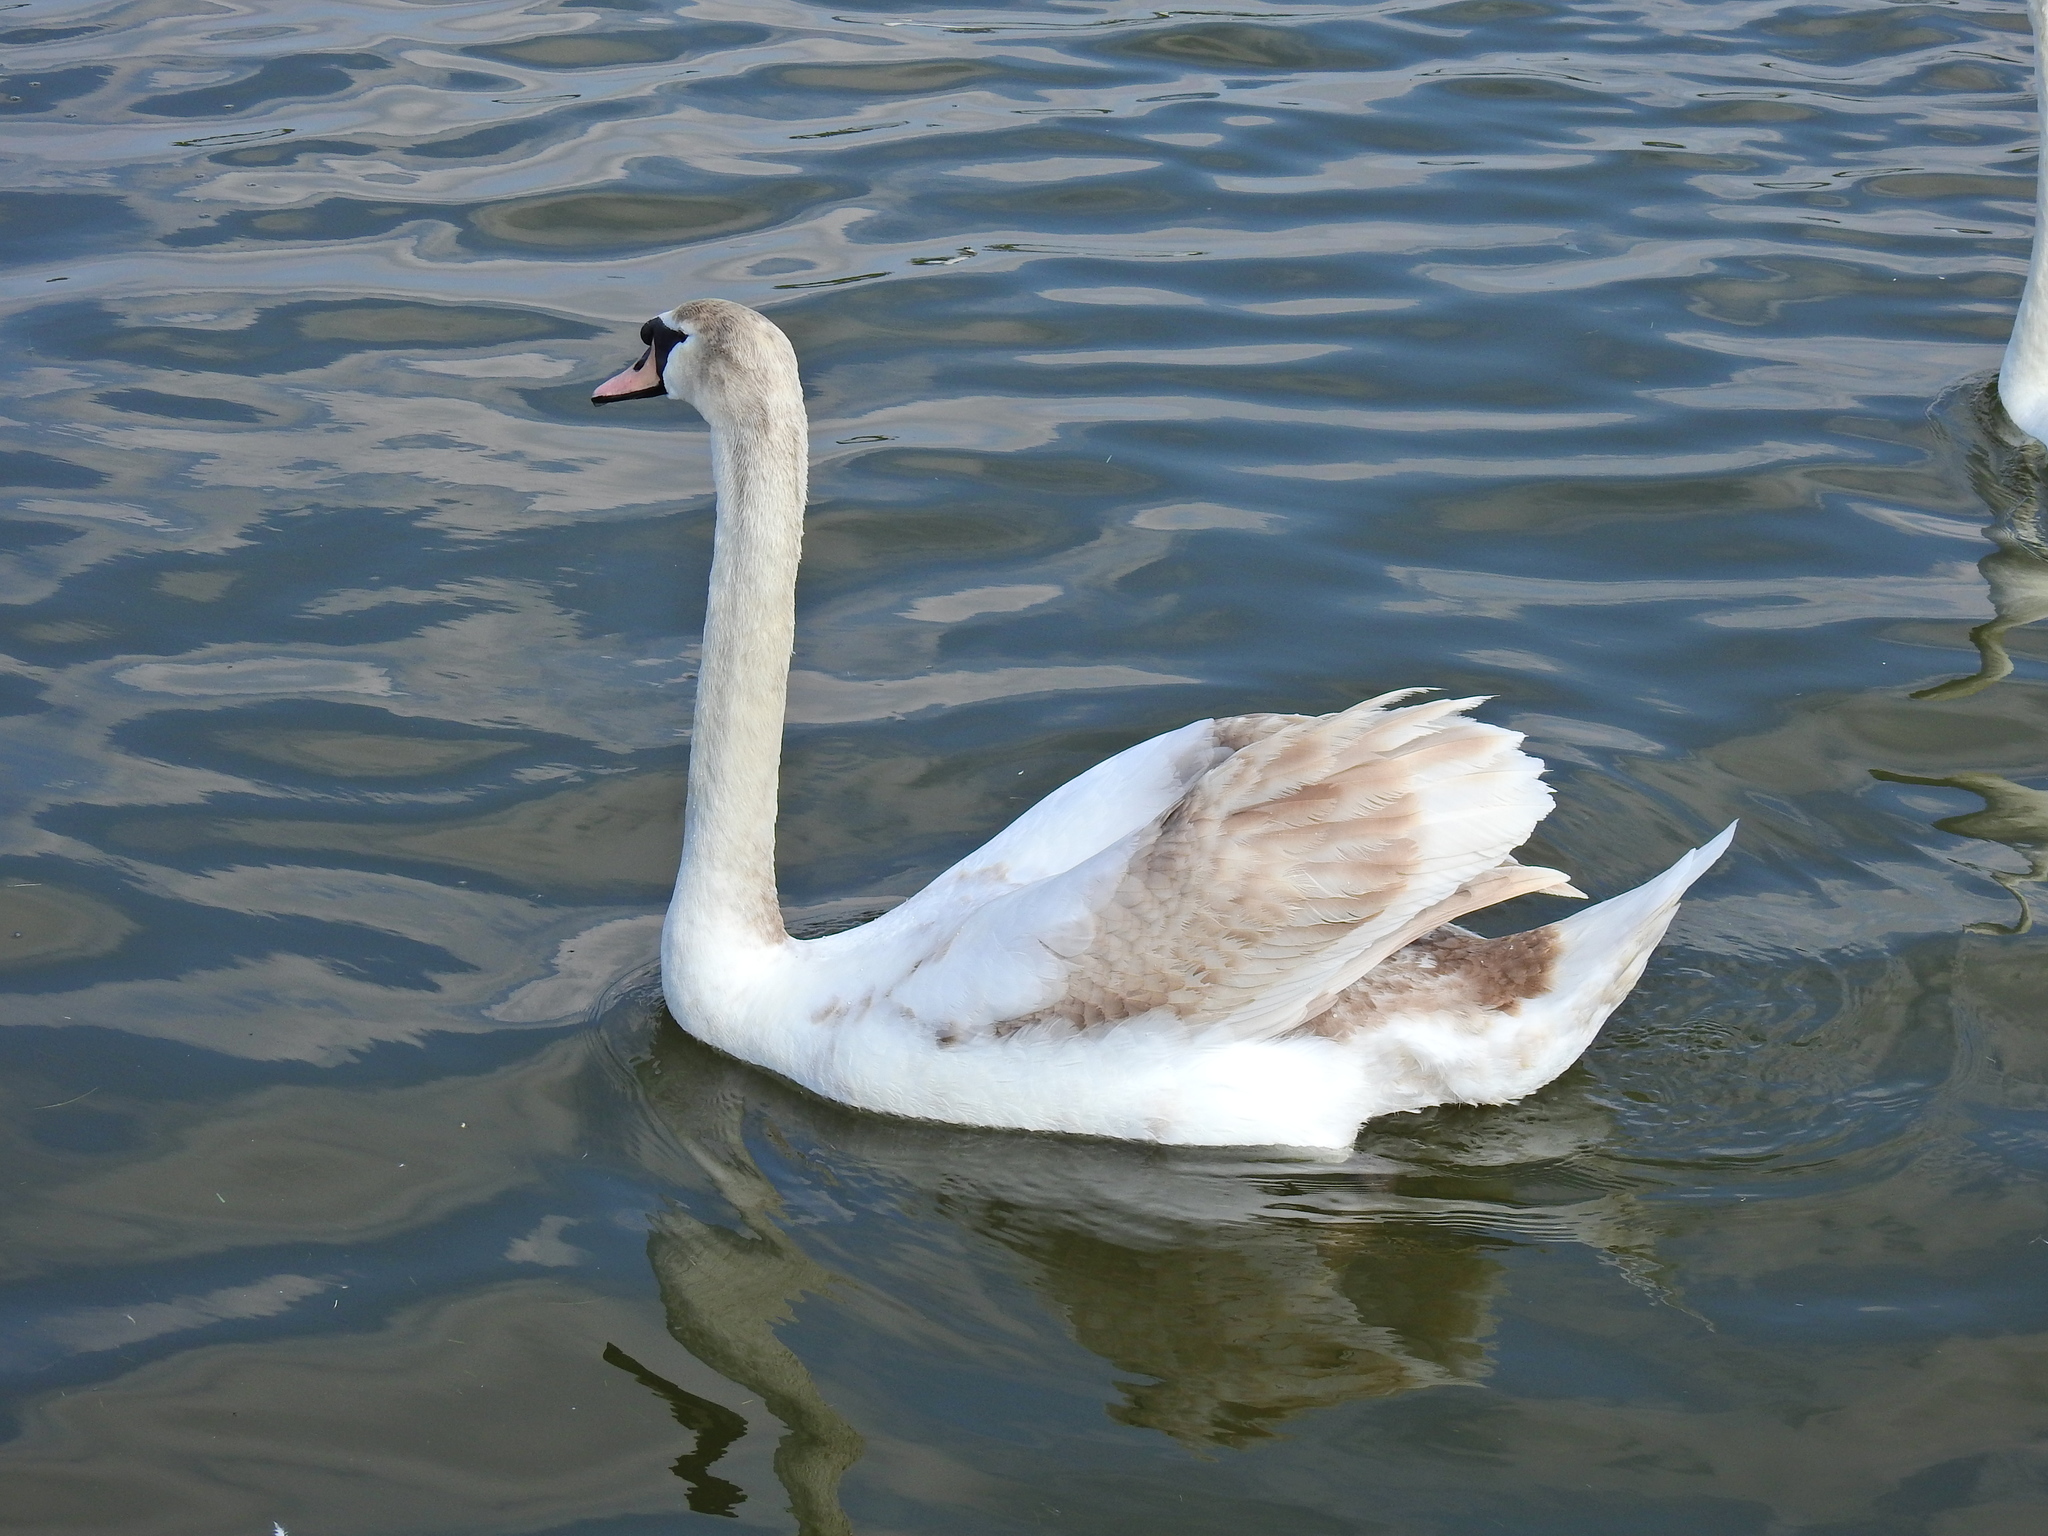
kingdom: Animalia
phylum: Chordata
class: Aves
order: Anseriformes
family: Anatidae
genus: Cygnus
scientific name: Cygnus olor
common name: Mute swan
